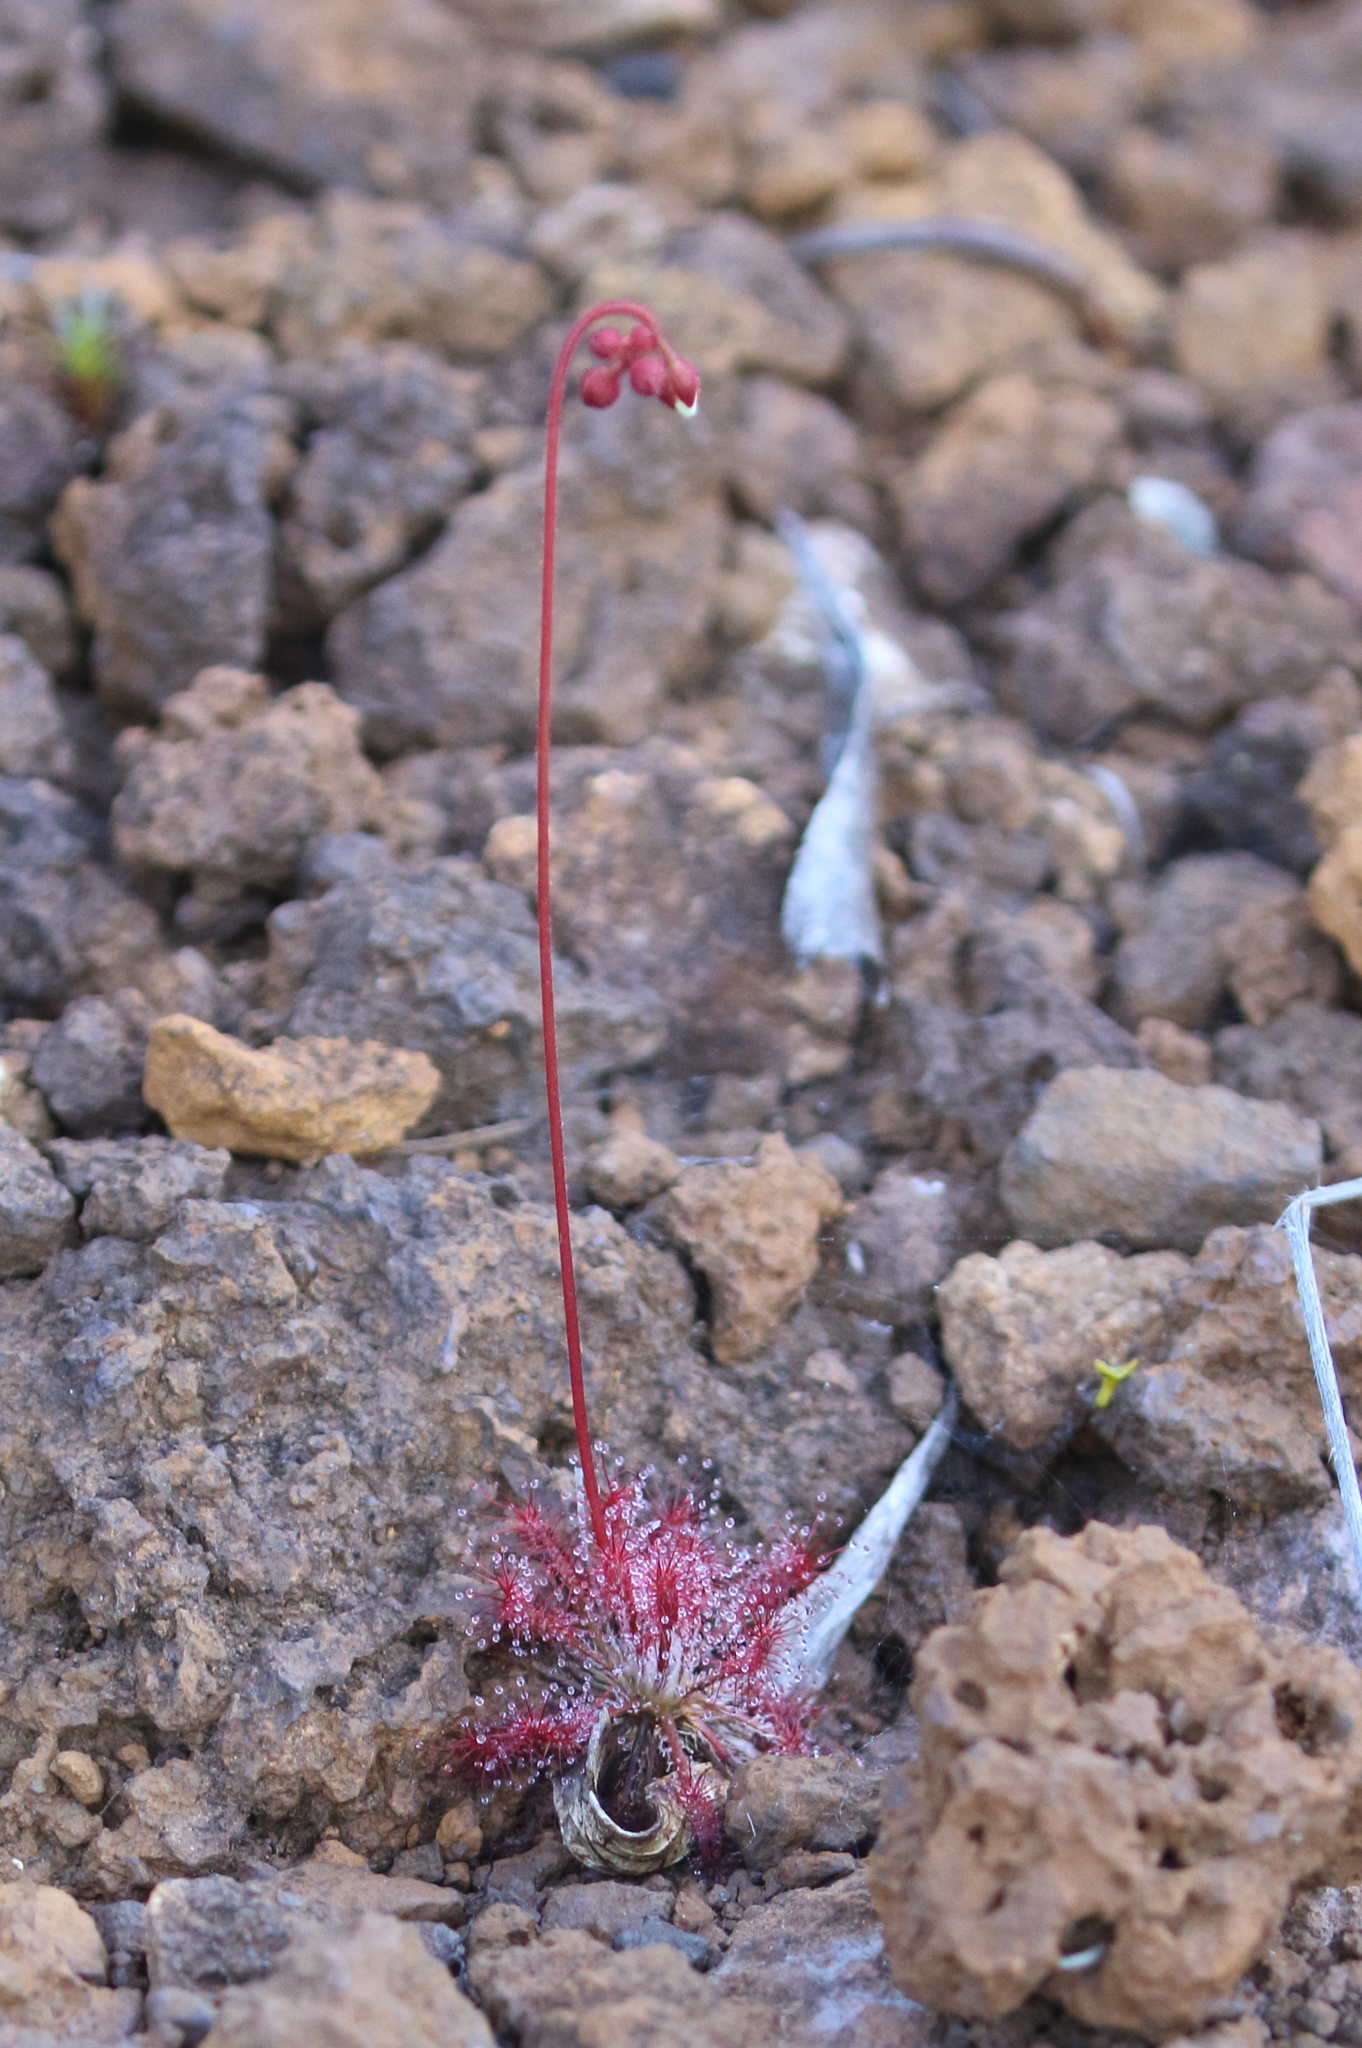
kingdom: Plantae
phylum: Tracheophyta
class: Magnoliopsida
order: Caryophyllales
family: Droseraceae
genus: Drosera
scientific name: Drosera neocaledonica
